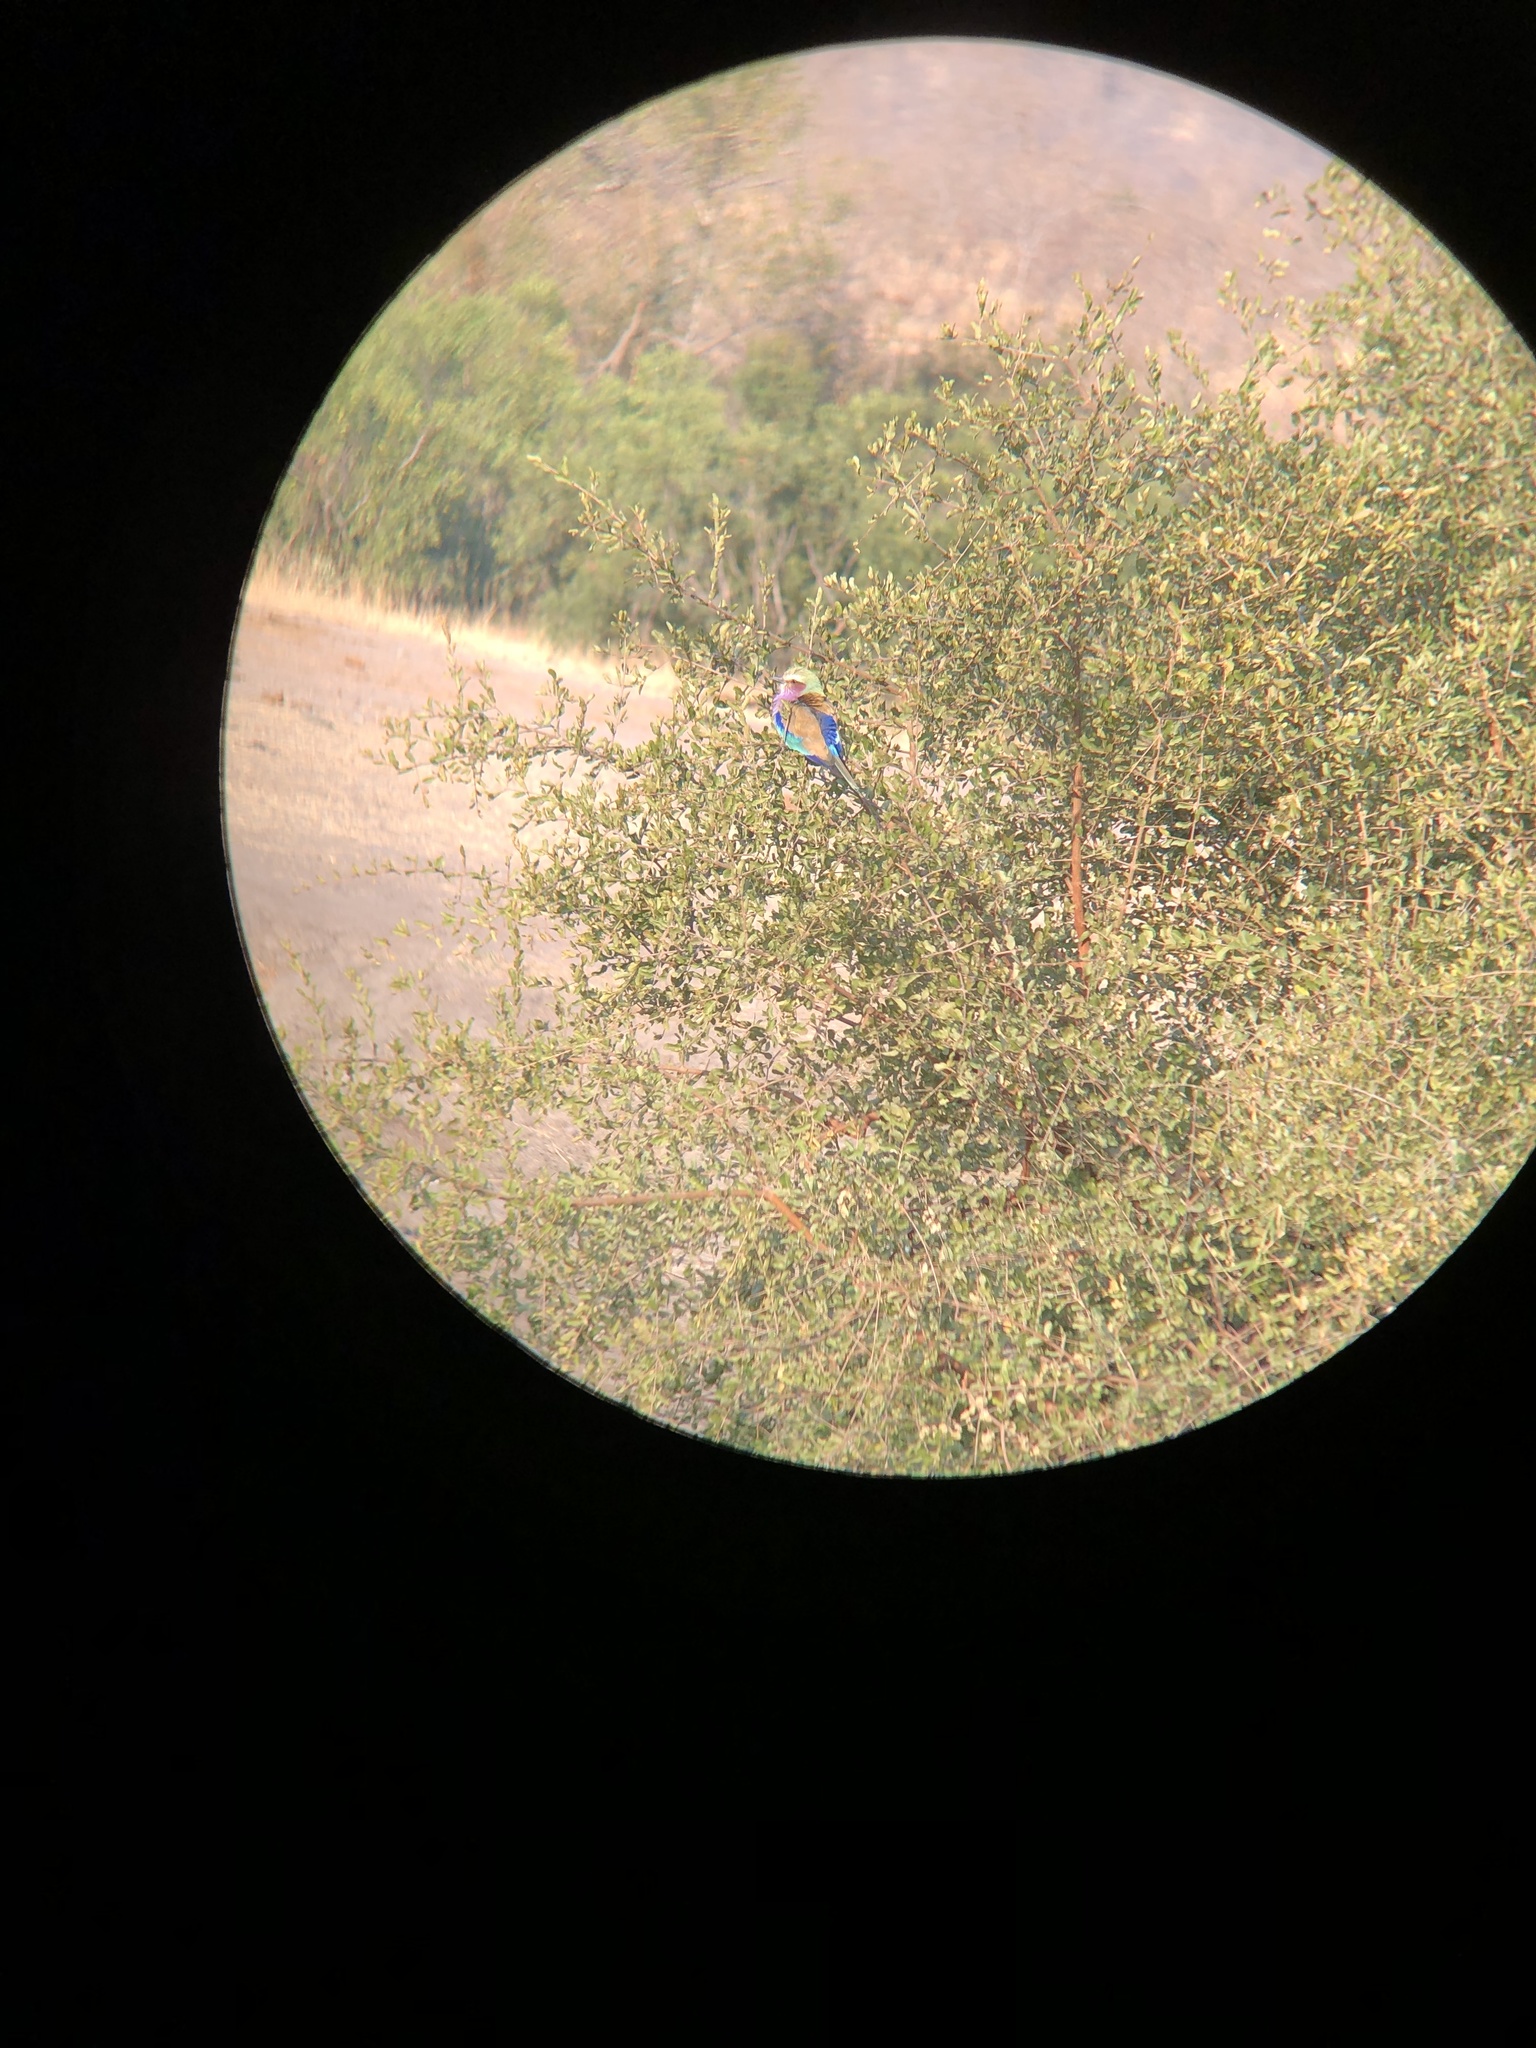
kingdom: Animalia
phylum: Chordata
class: Aves
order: Coraciiformes
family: Coraciidae
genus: Coracias
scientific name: Coracias caudatus
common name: Lilac-breasted roller
